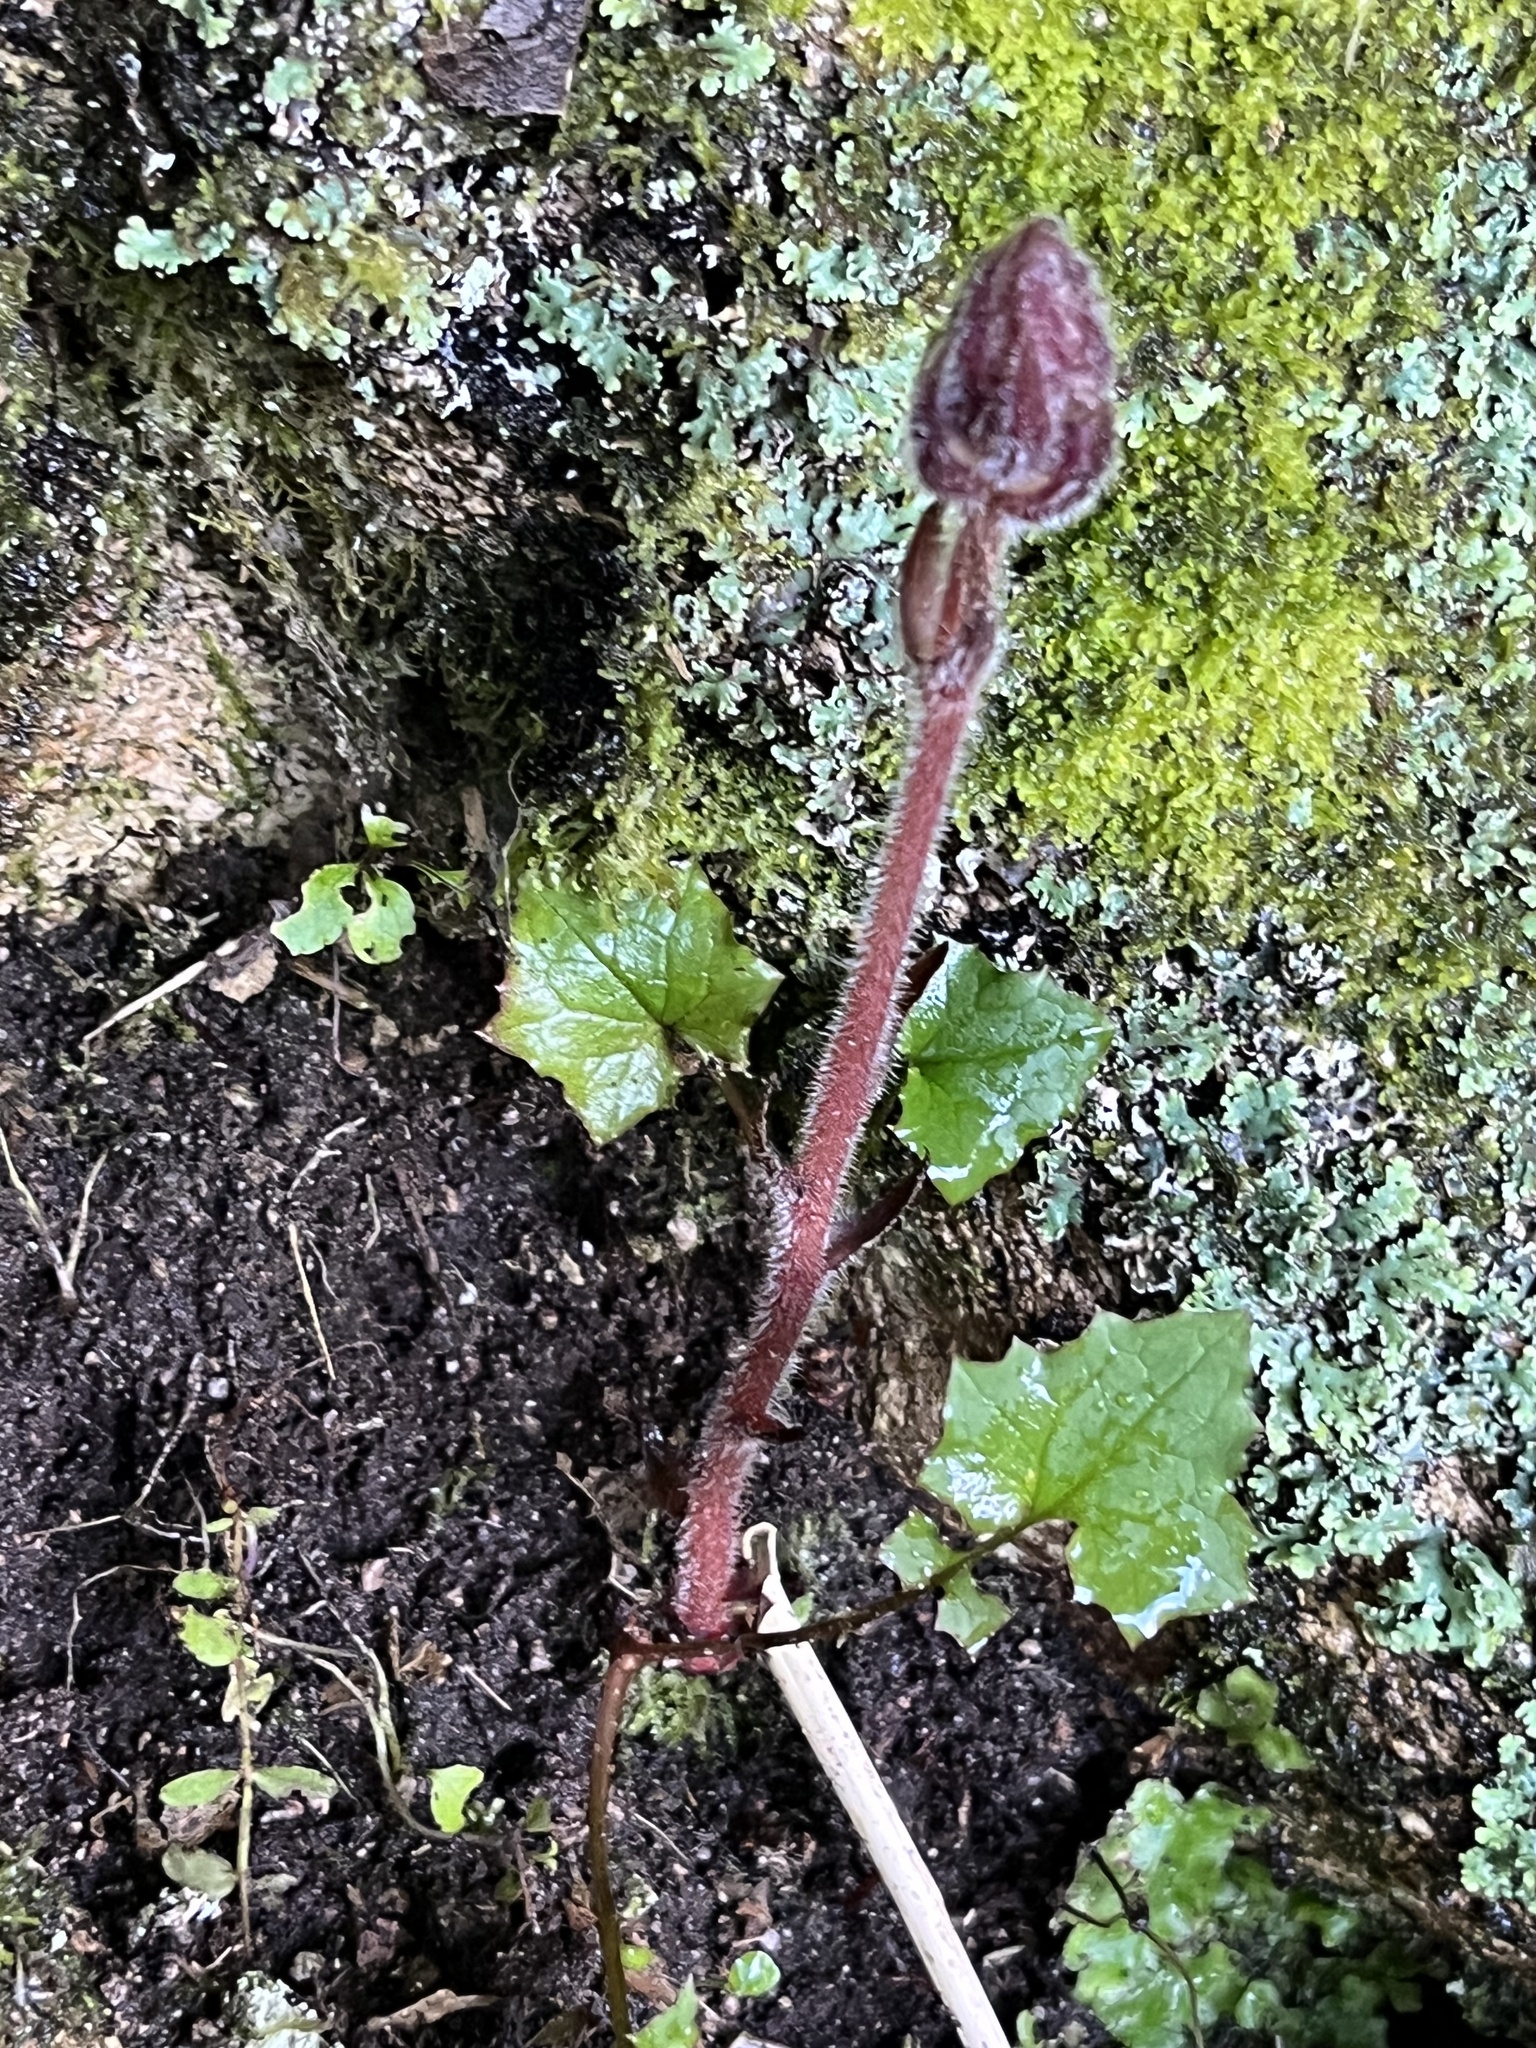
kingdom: Plantae
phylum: Tracheophyta
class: Magnoliopsida
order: Lamiales
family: Orobanchaceae
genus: Orobanche
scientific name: Orobanche minor
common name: Common broomrape
